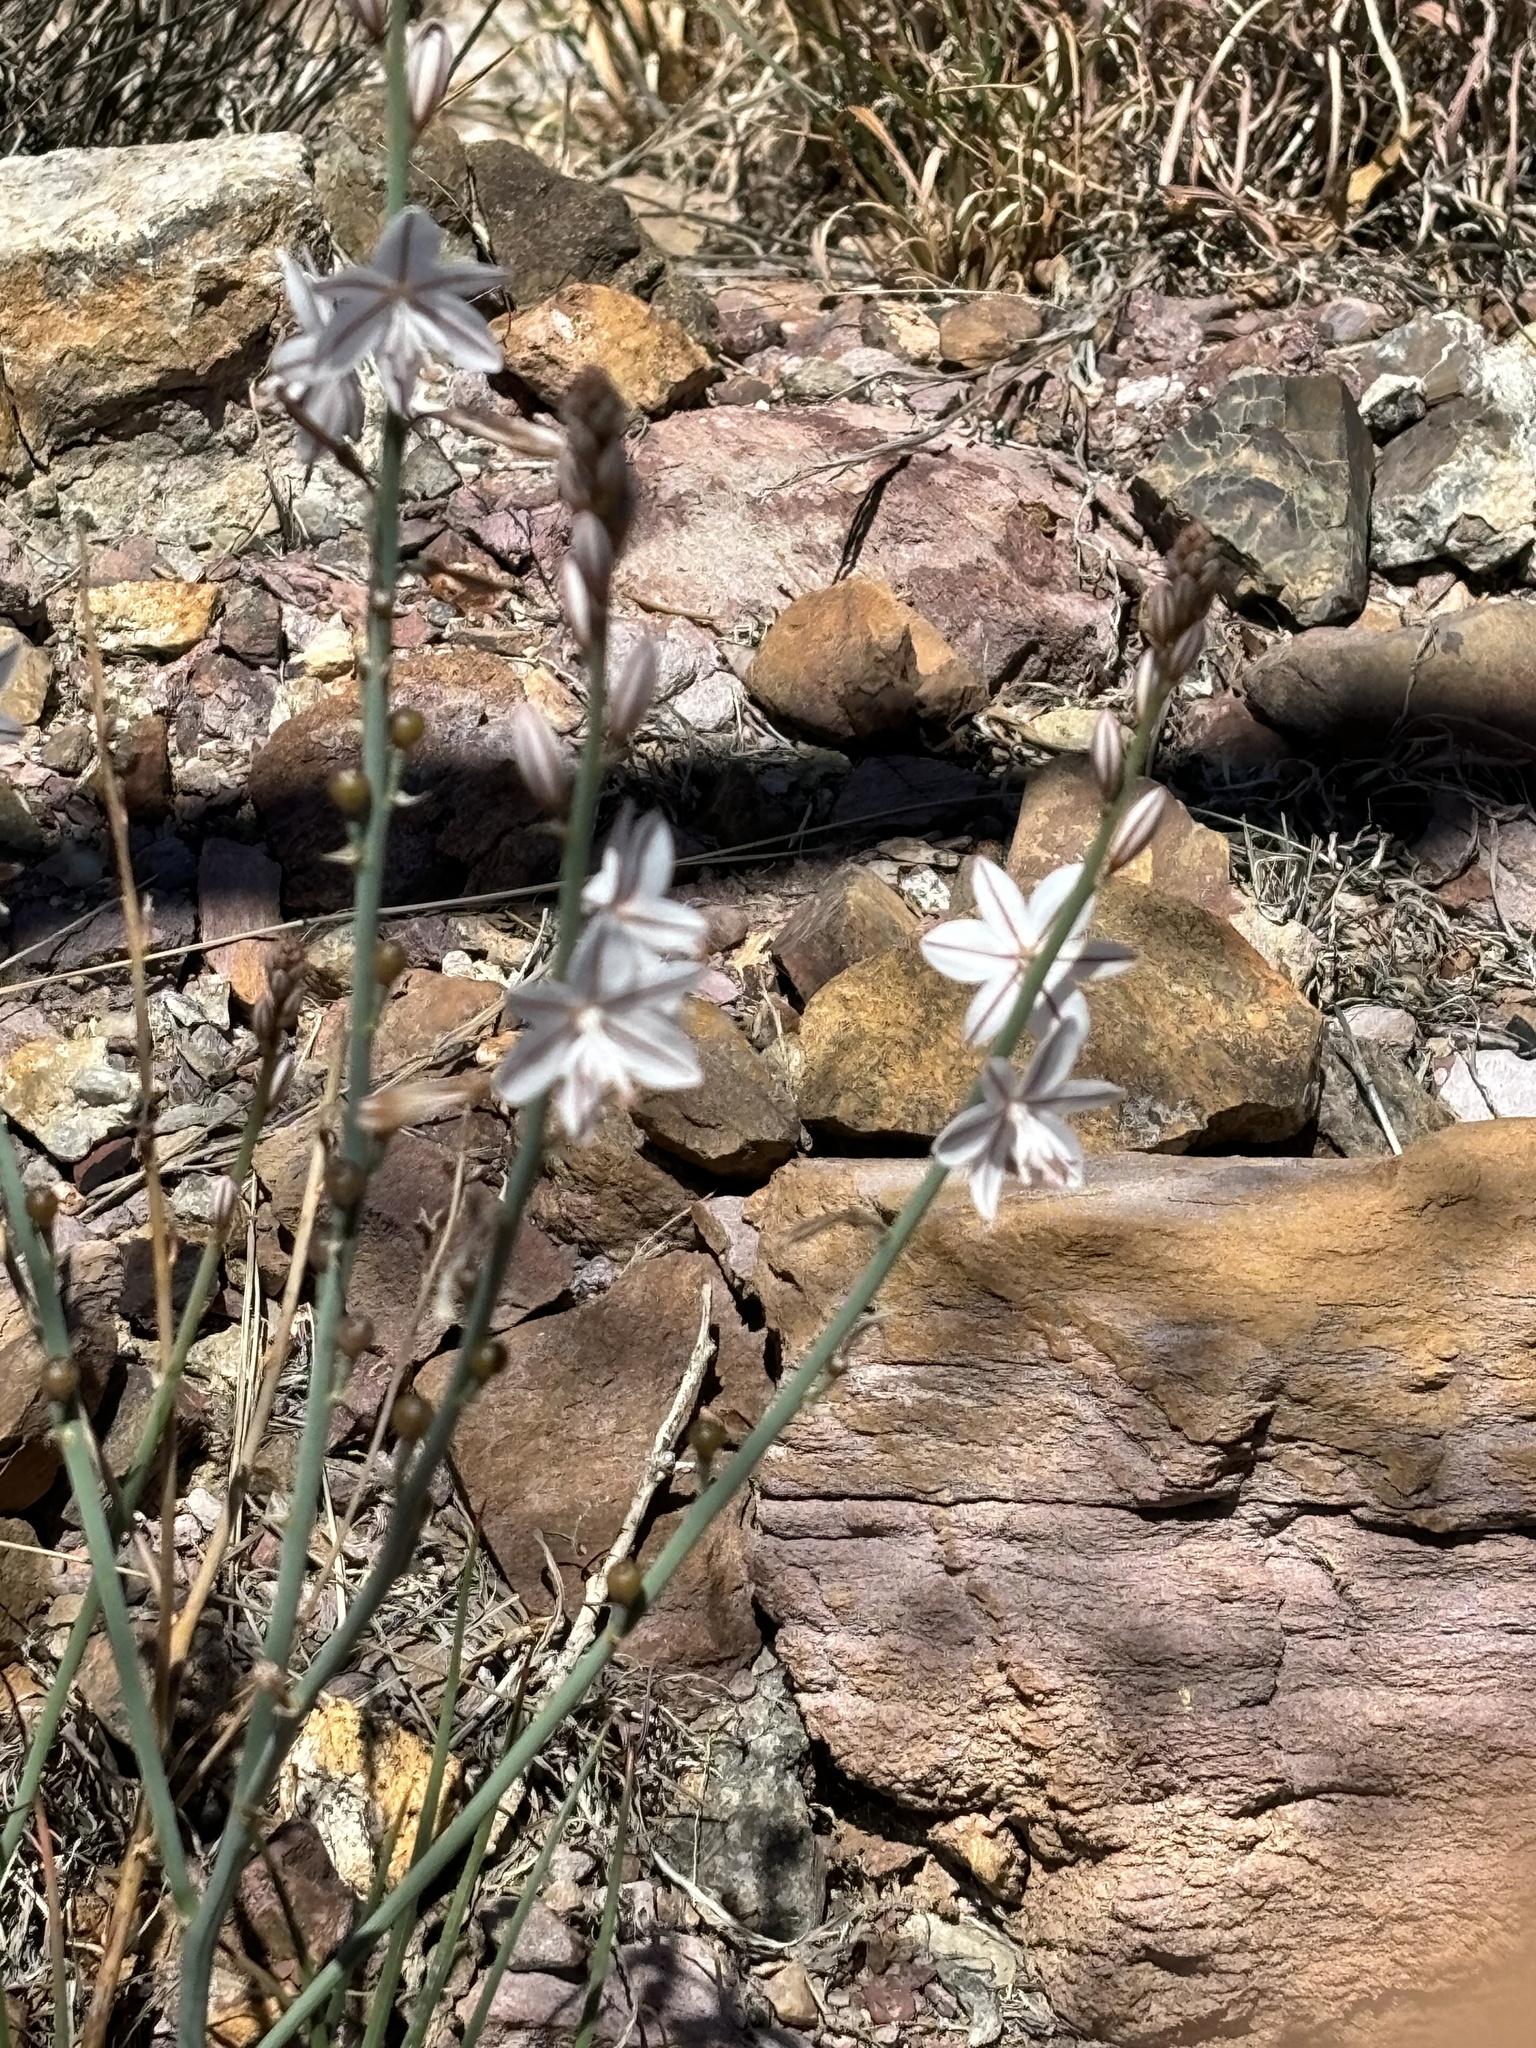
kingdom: Plantae
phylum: Tracheophyta
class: Liliopsida
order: Asparagales
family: Asphodelaceae
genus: Asphodelus
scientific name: Asphodelus fistulosus
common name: Onionweed
